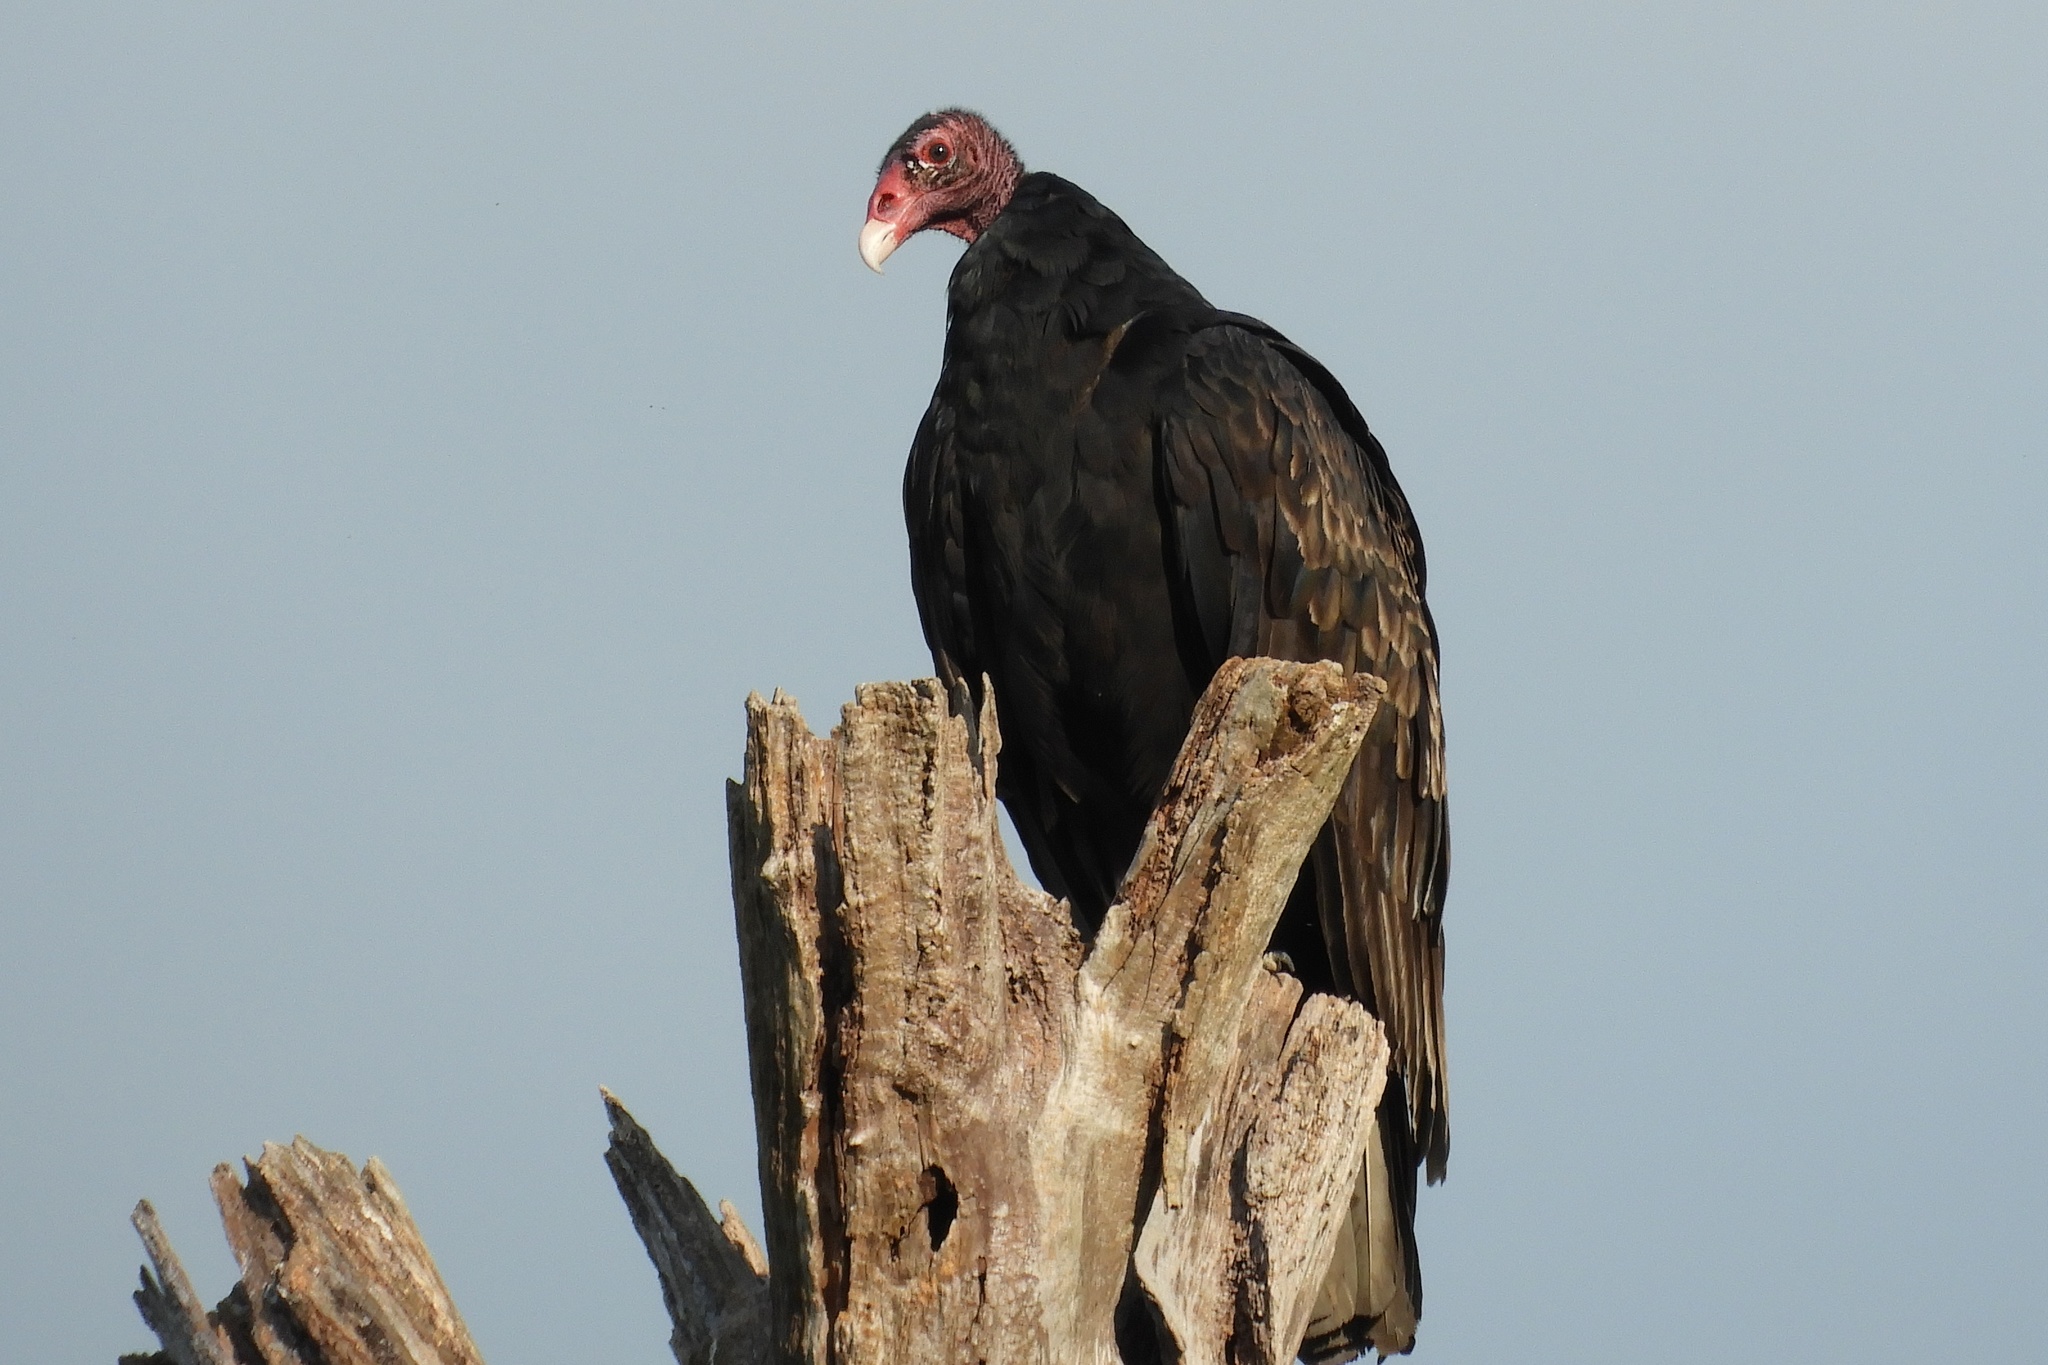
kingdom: Animalia
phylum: Chordata
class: Aves
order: Accipitriformes
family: Cathartidae
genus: Cathartes
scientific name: Cathartes aura
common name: Turkey vulture
